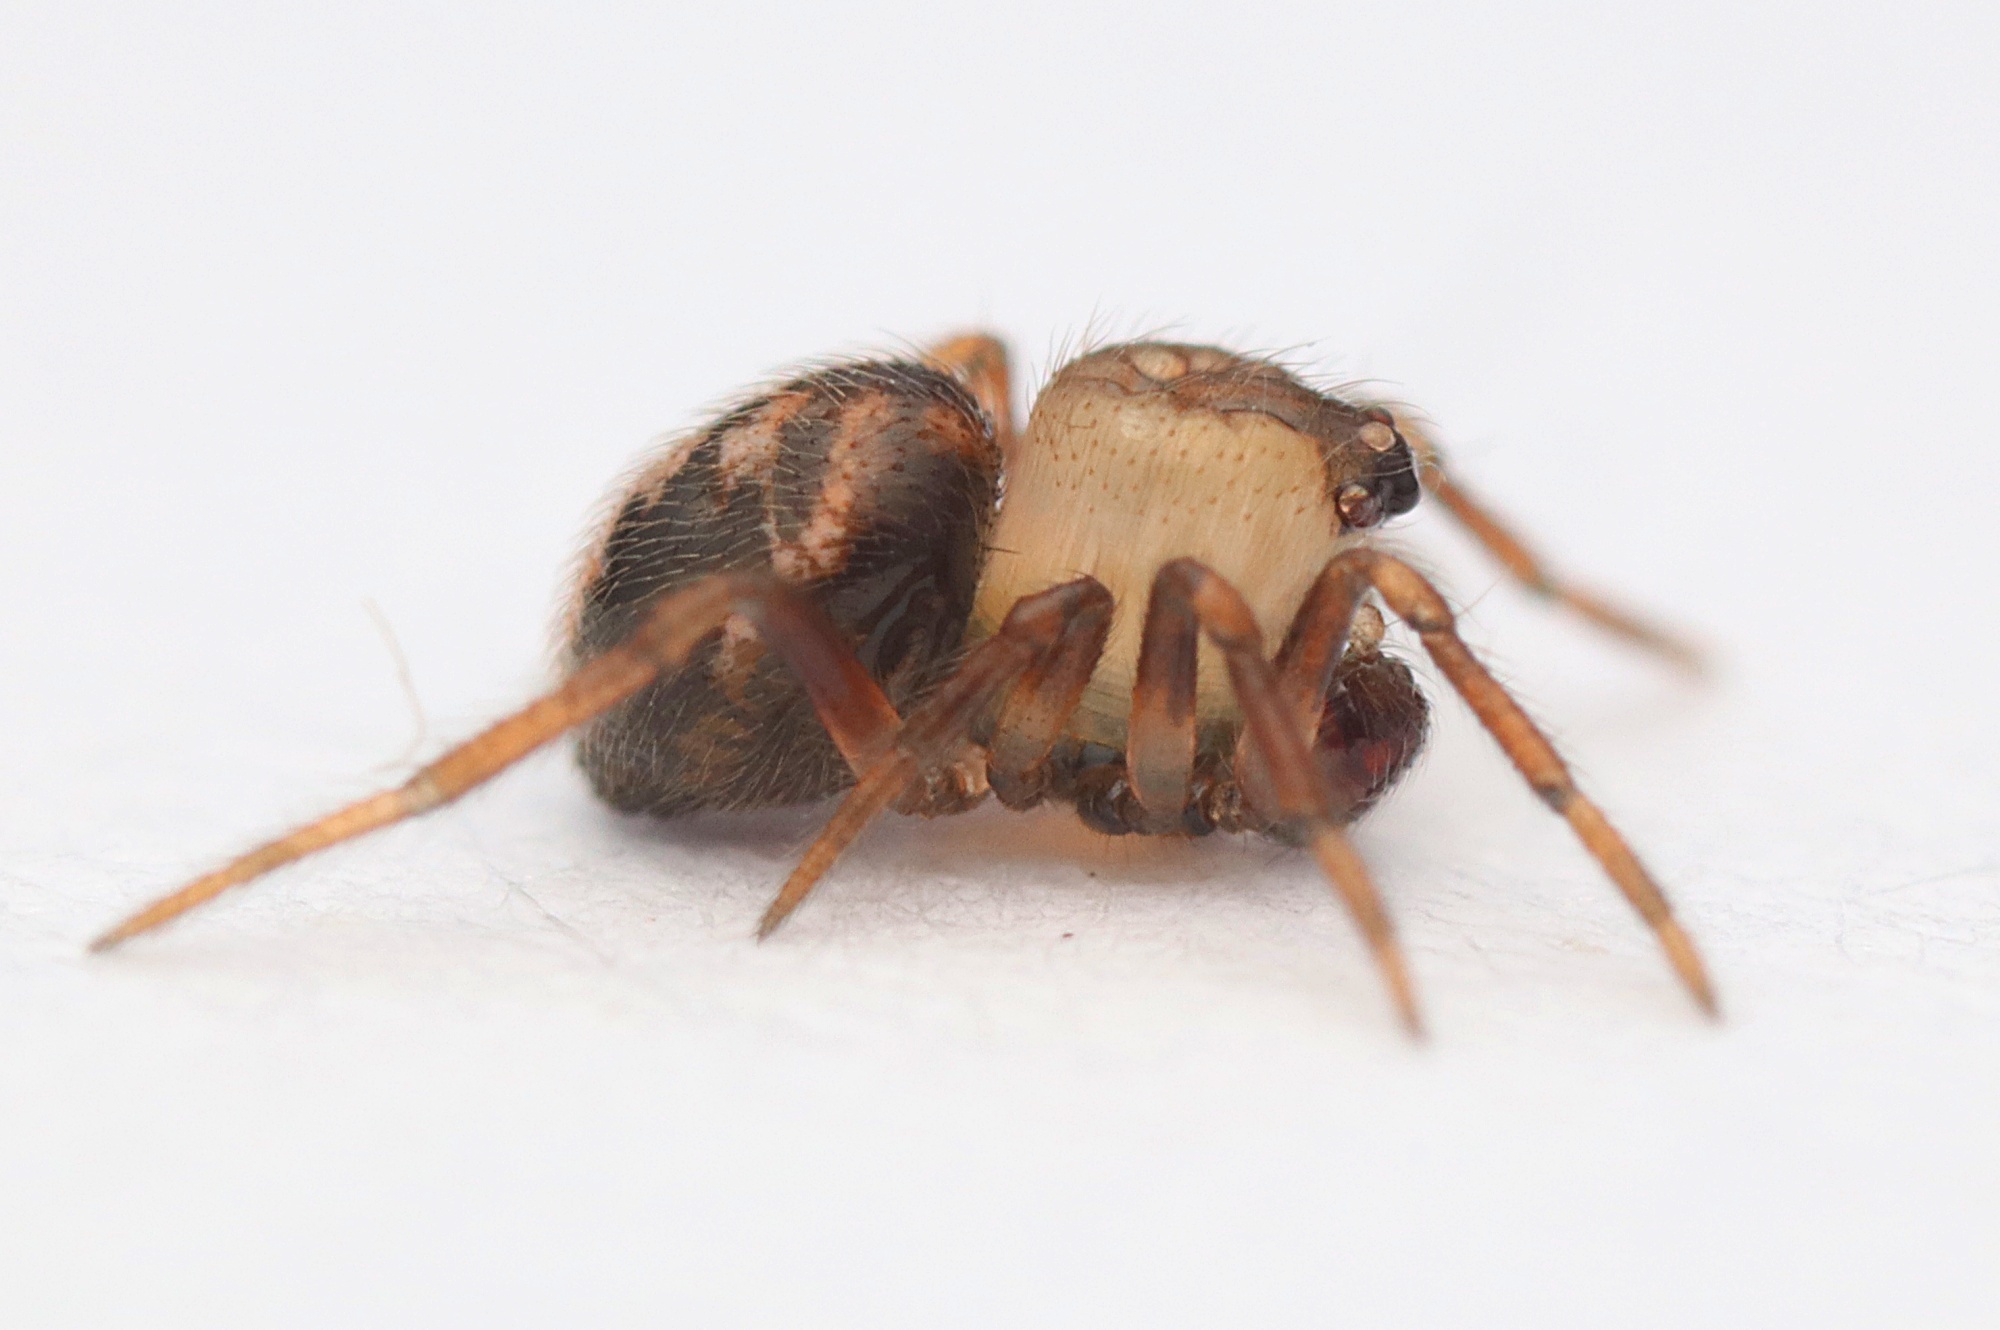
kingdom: Animalia
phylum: Arthropoda
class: Arachnida
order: Araneae
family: Theridiidae
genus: Phycosoma
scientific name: Phycosoma oecobioides
